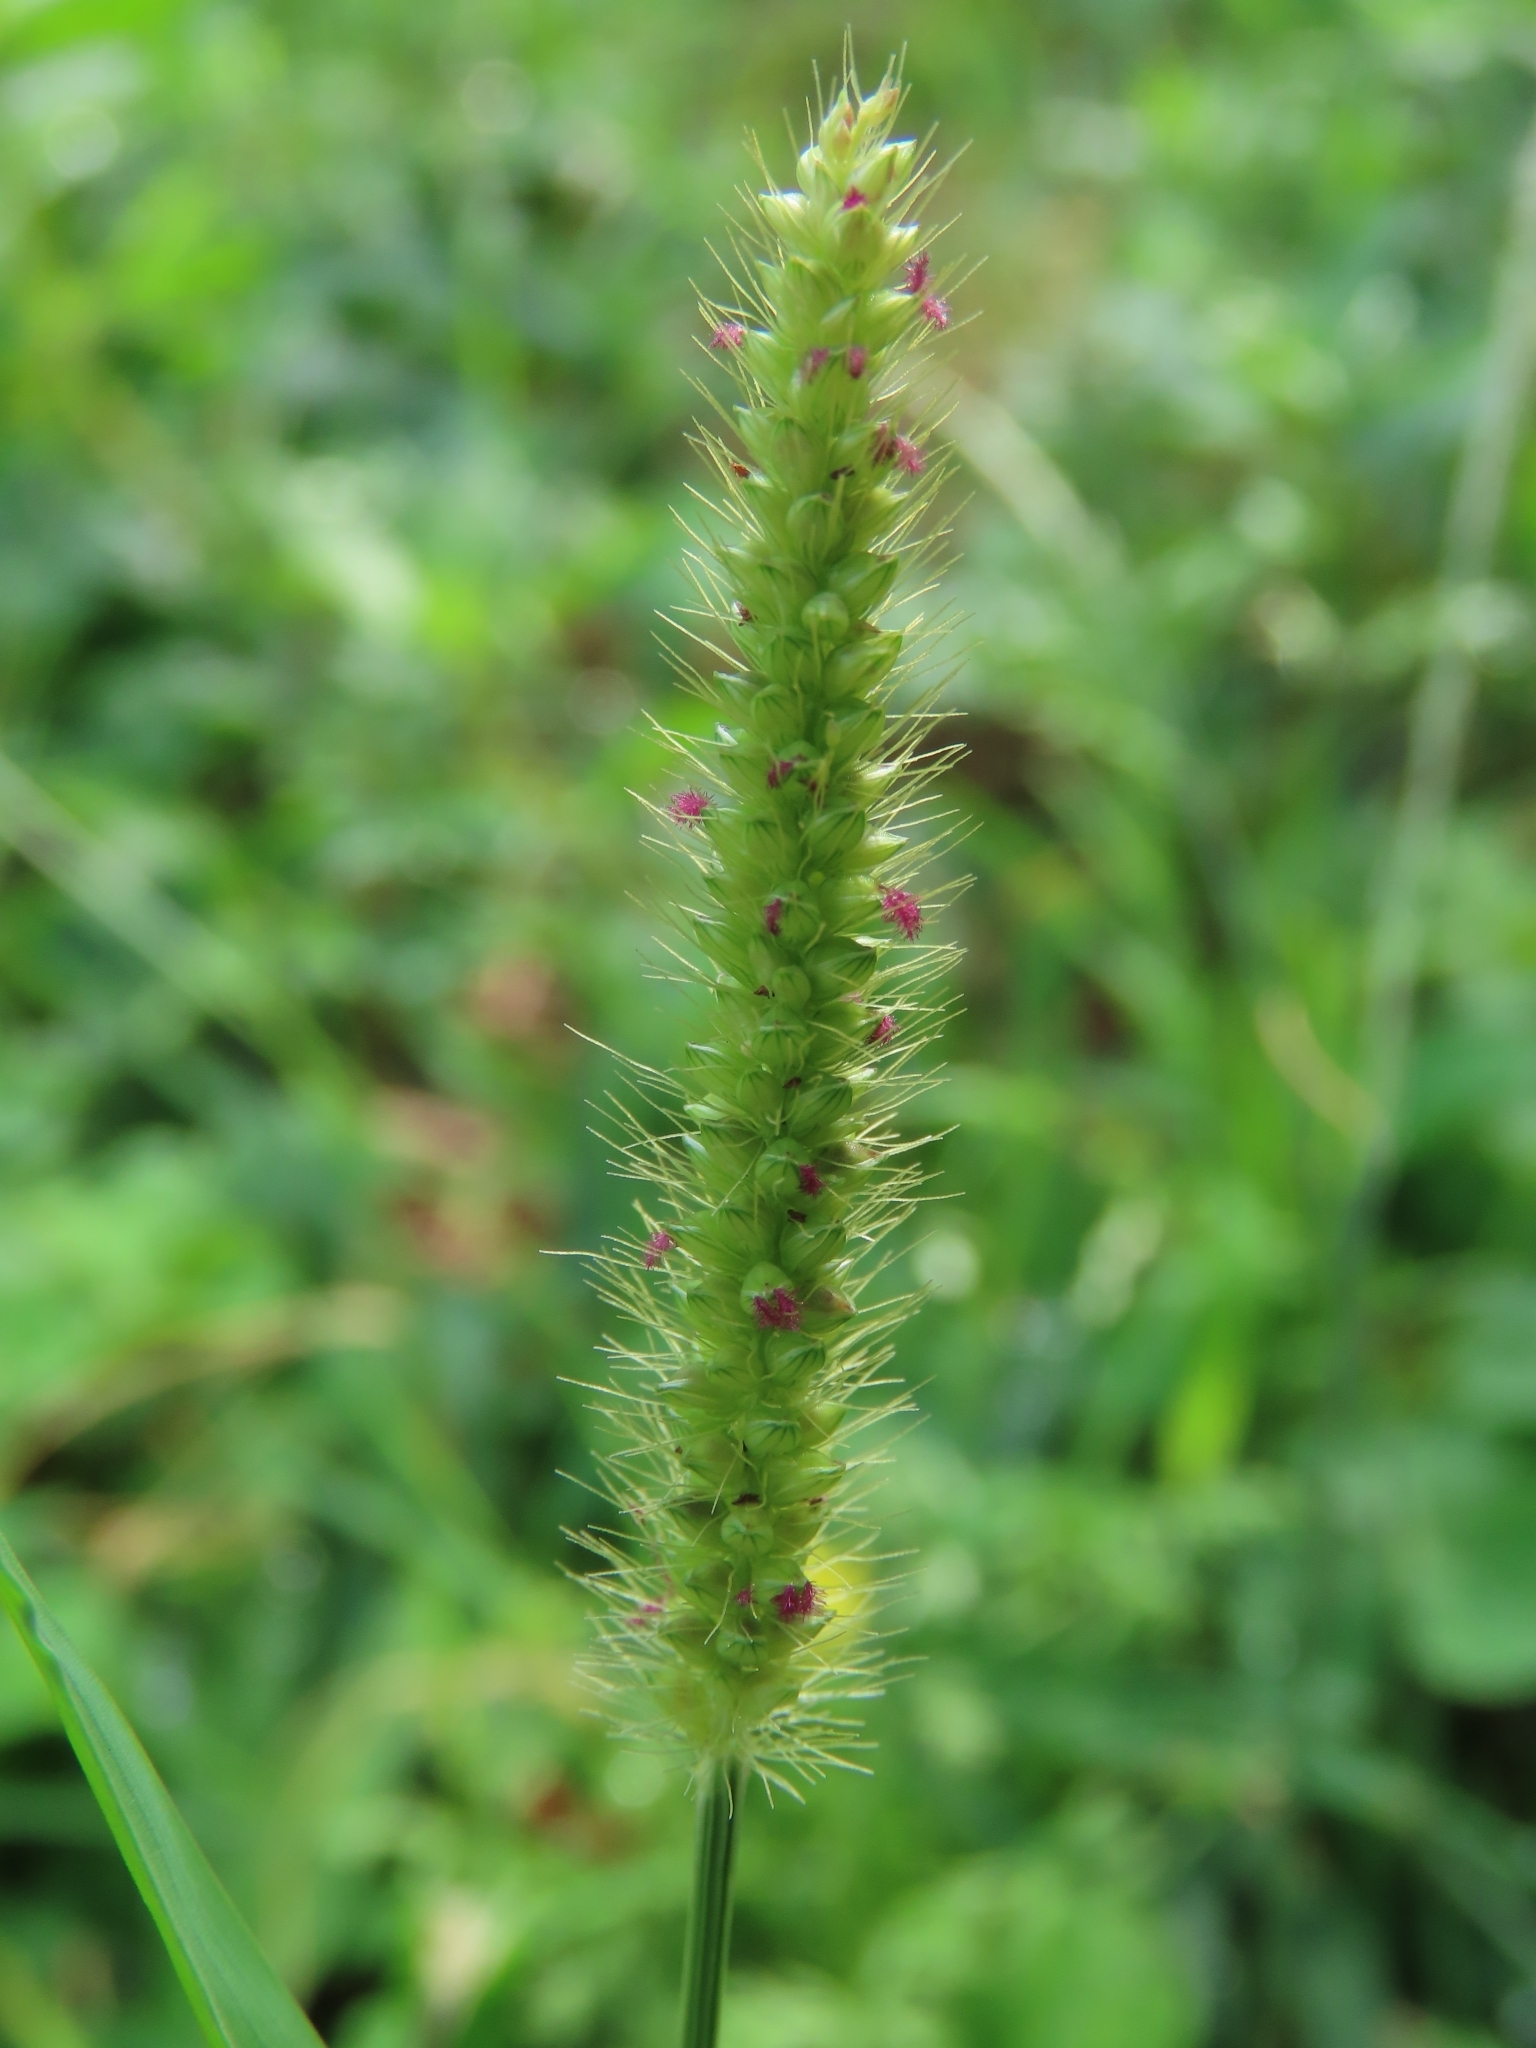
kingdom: Plantae
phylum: Tracheophyta
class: Liliopsida
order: Poales
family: Poaceae
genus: Setaria
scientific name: Setaria parviflora
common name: Knotroot bristle-grass
